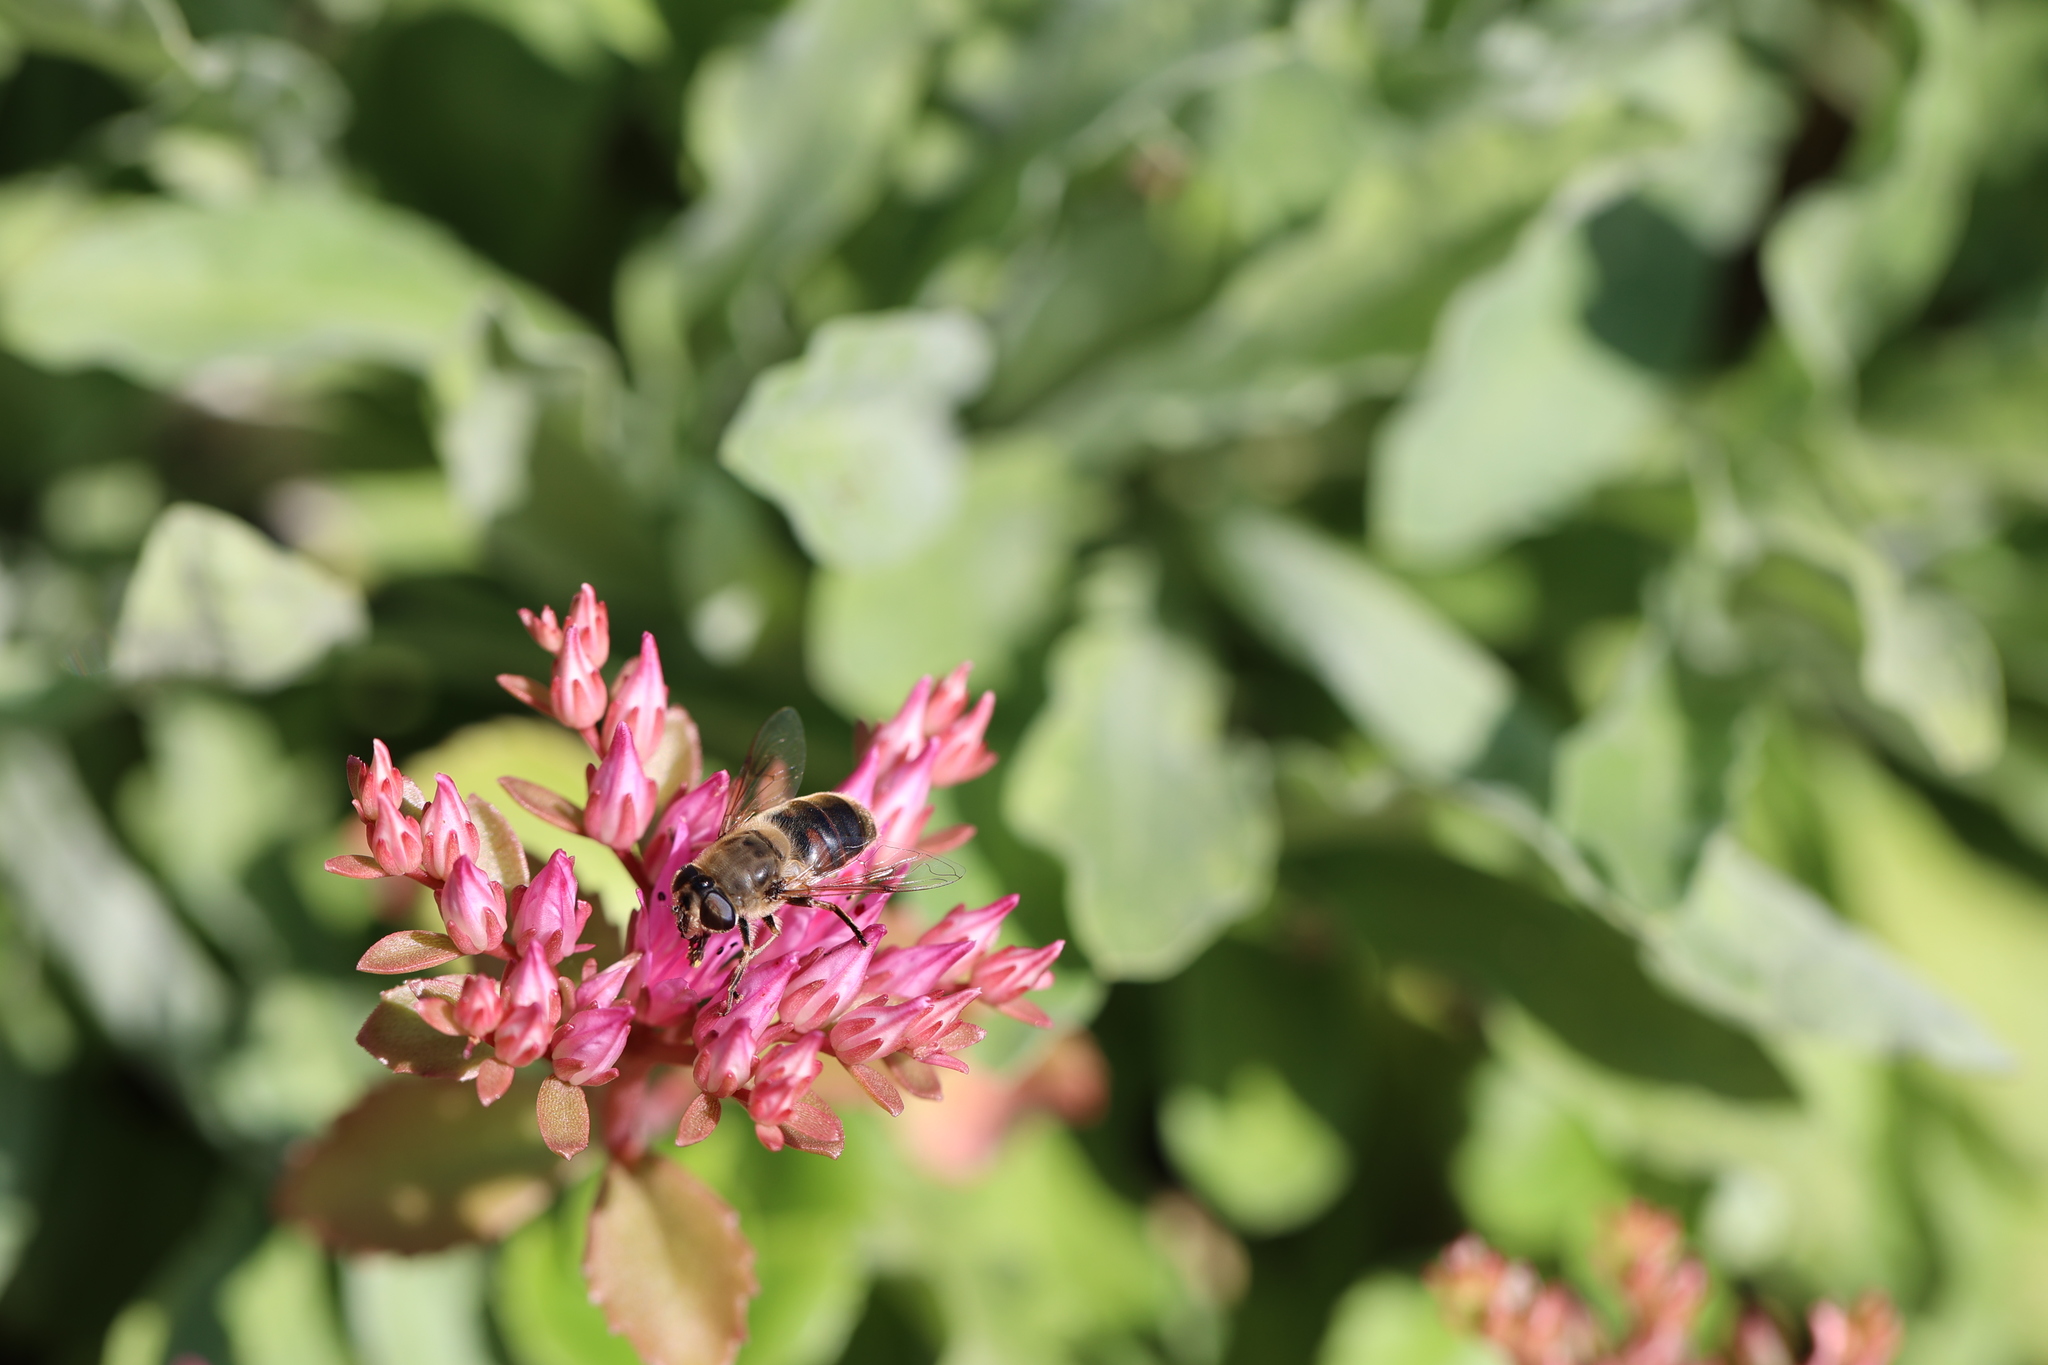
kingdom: Animalia
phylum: Arthropoda
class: Insecta
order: Diptera
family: Syrphidae
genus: Eristalis
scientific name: Eristalis tenax
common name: Drone fly
